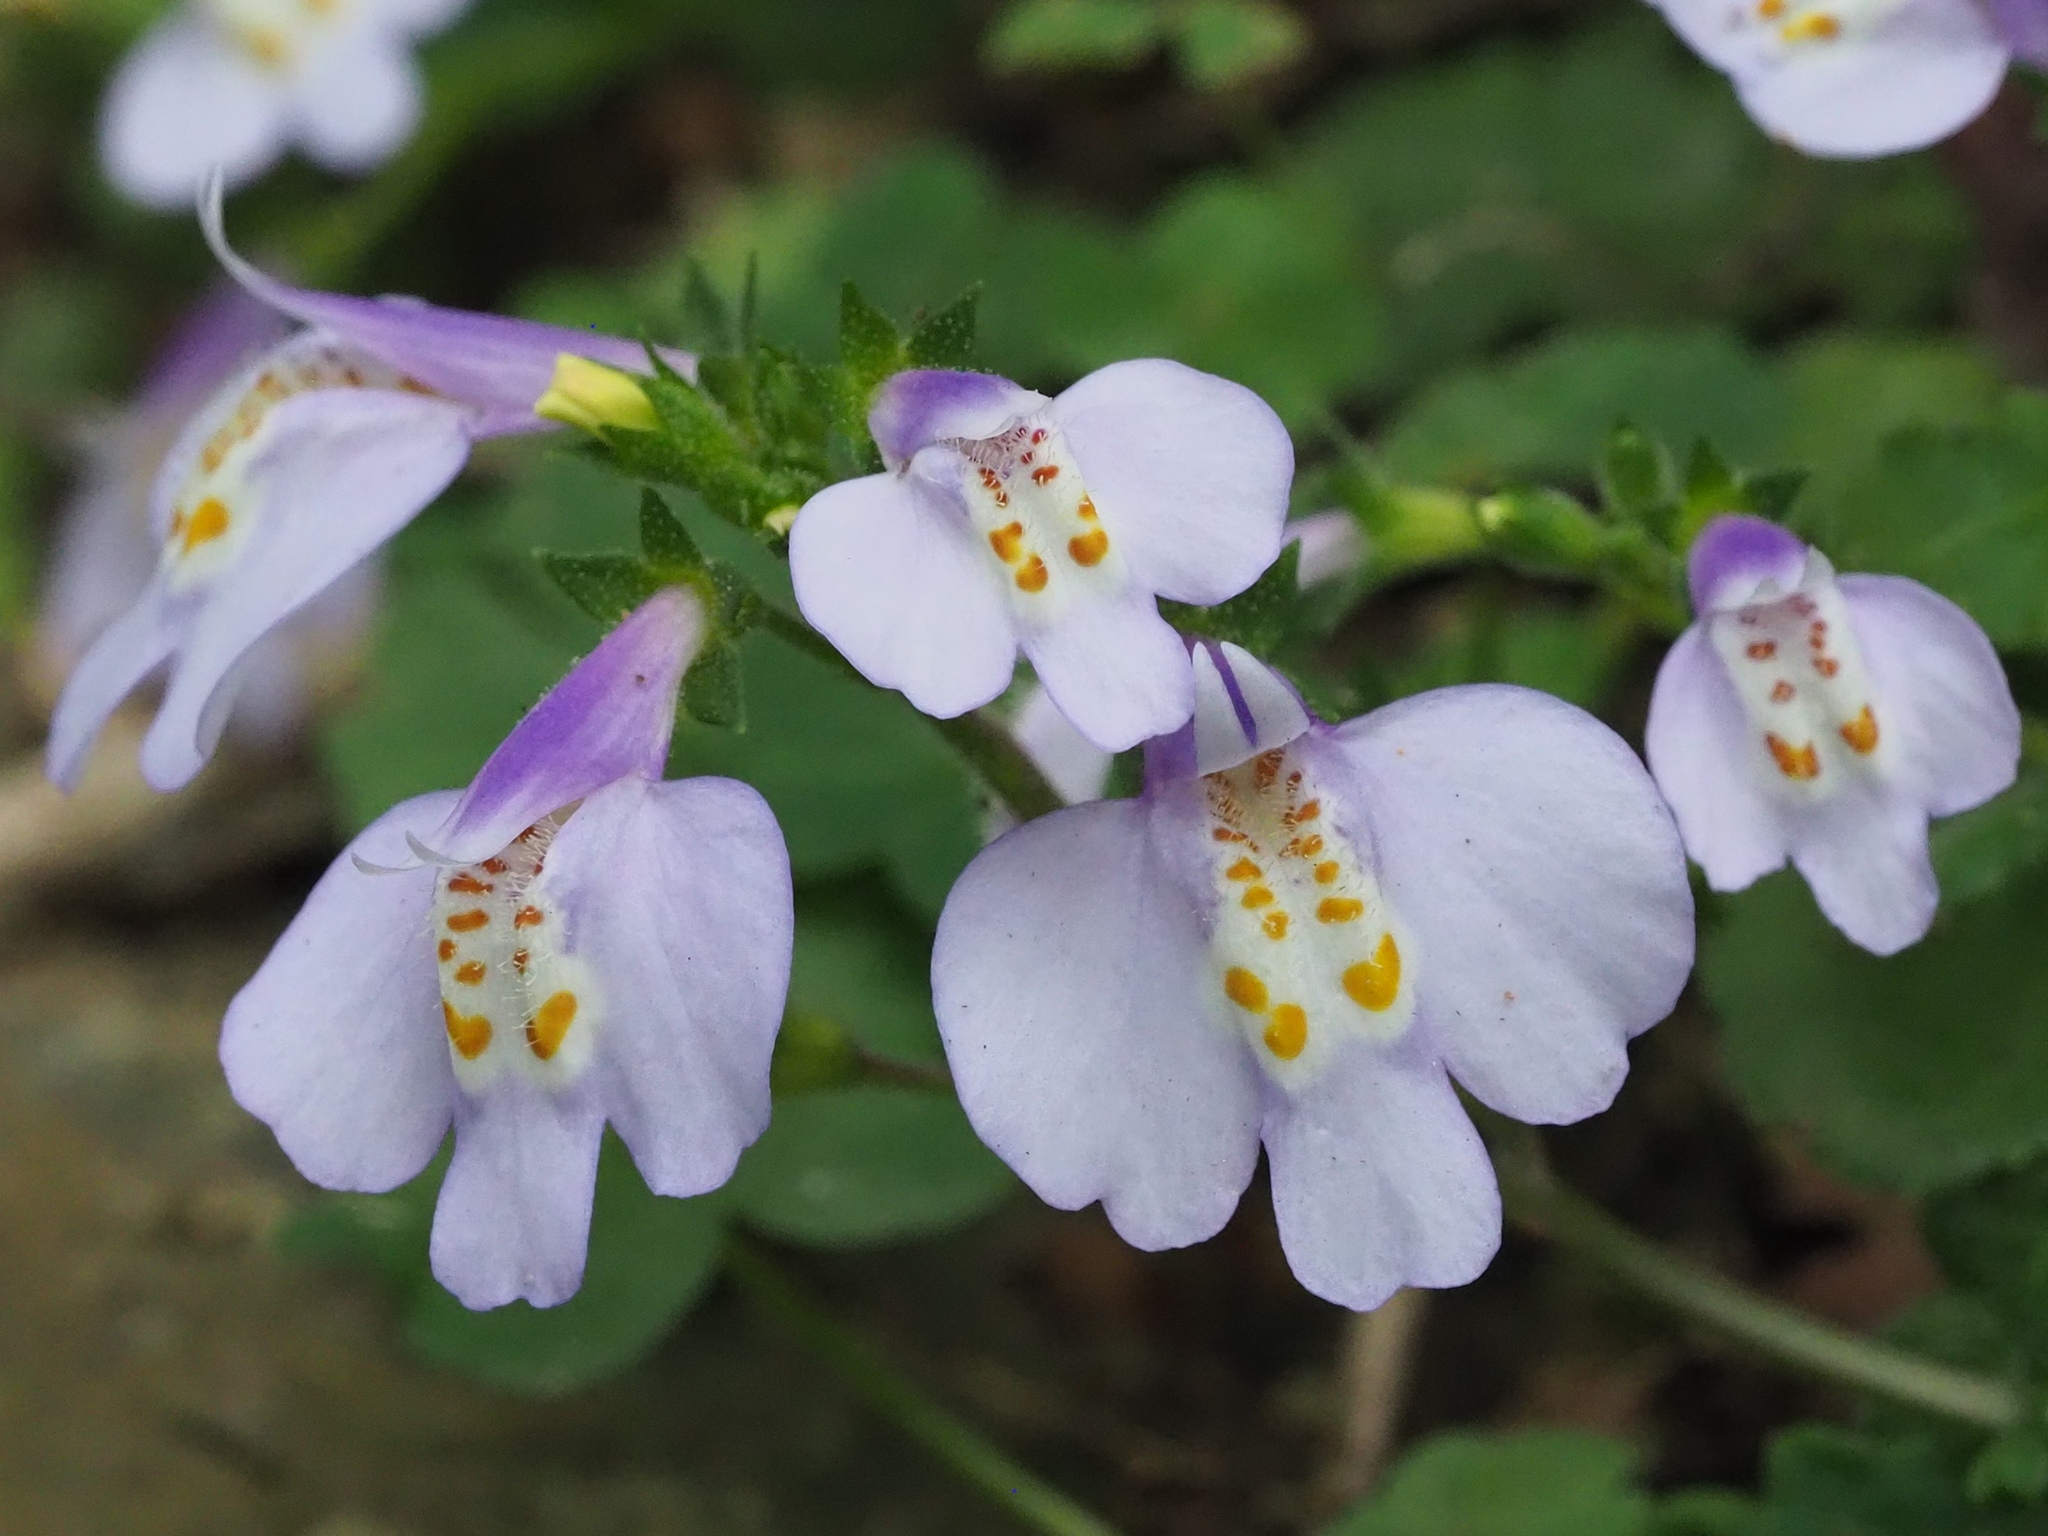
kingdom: Plantae
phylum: Tracheophyta
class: Magnoliopsida
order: Lamiales
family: Mazaceae
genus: Mazus
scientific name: Mazus fauriei
